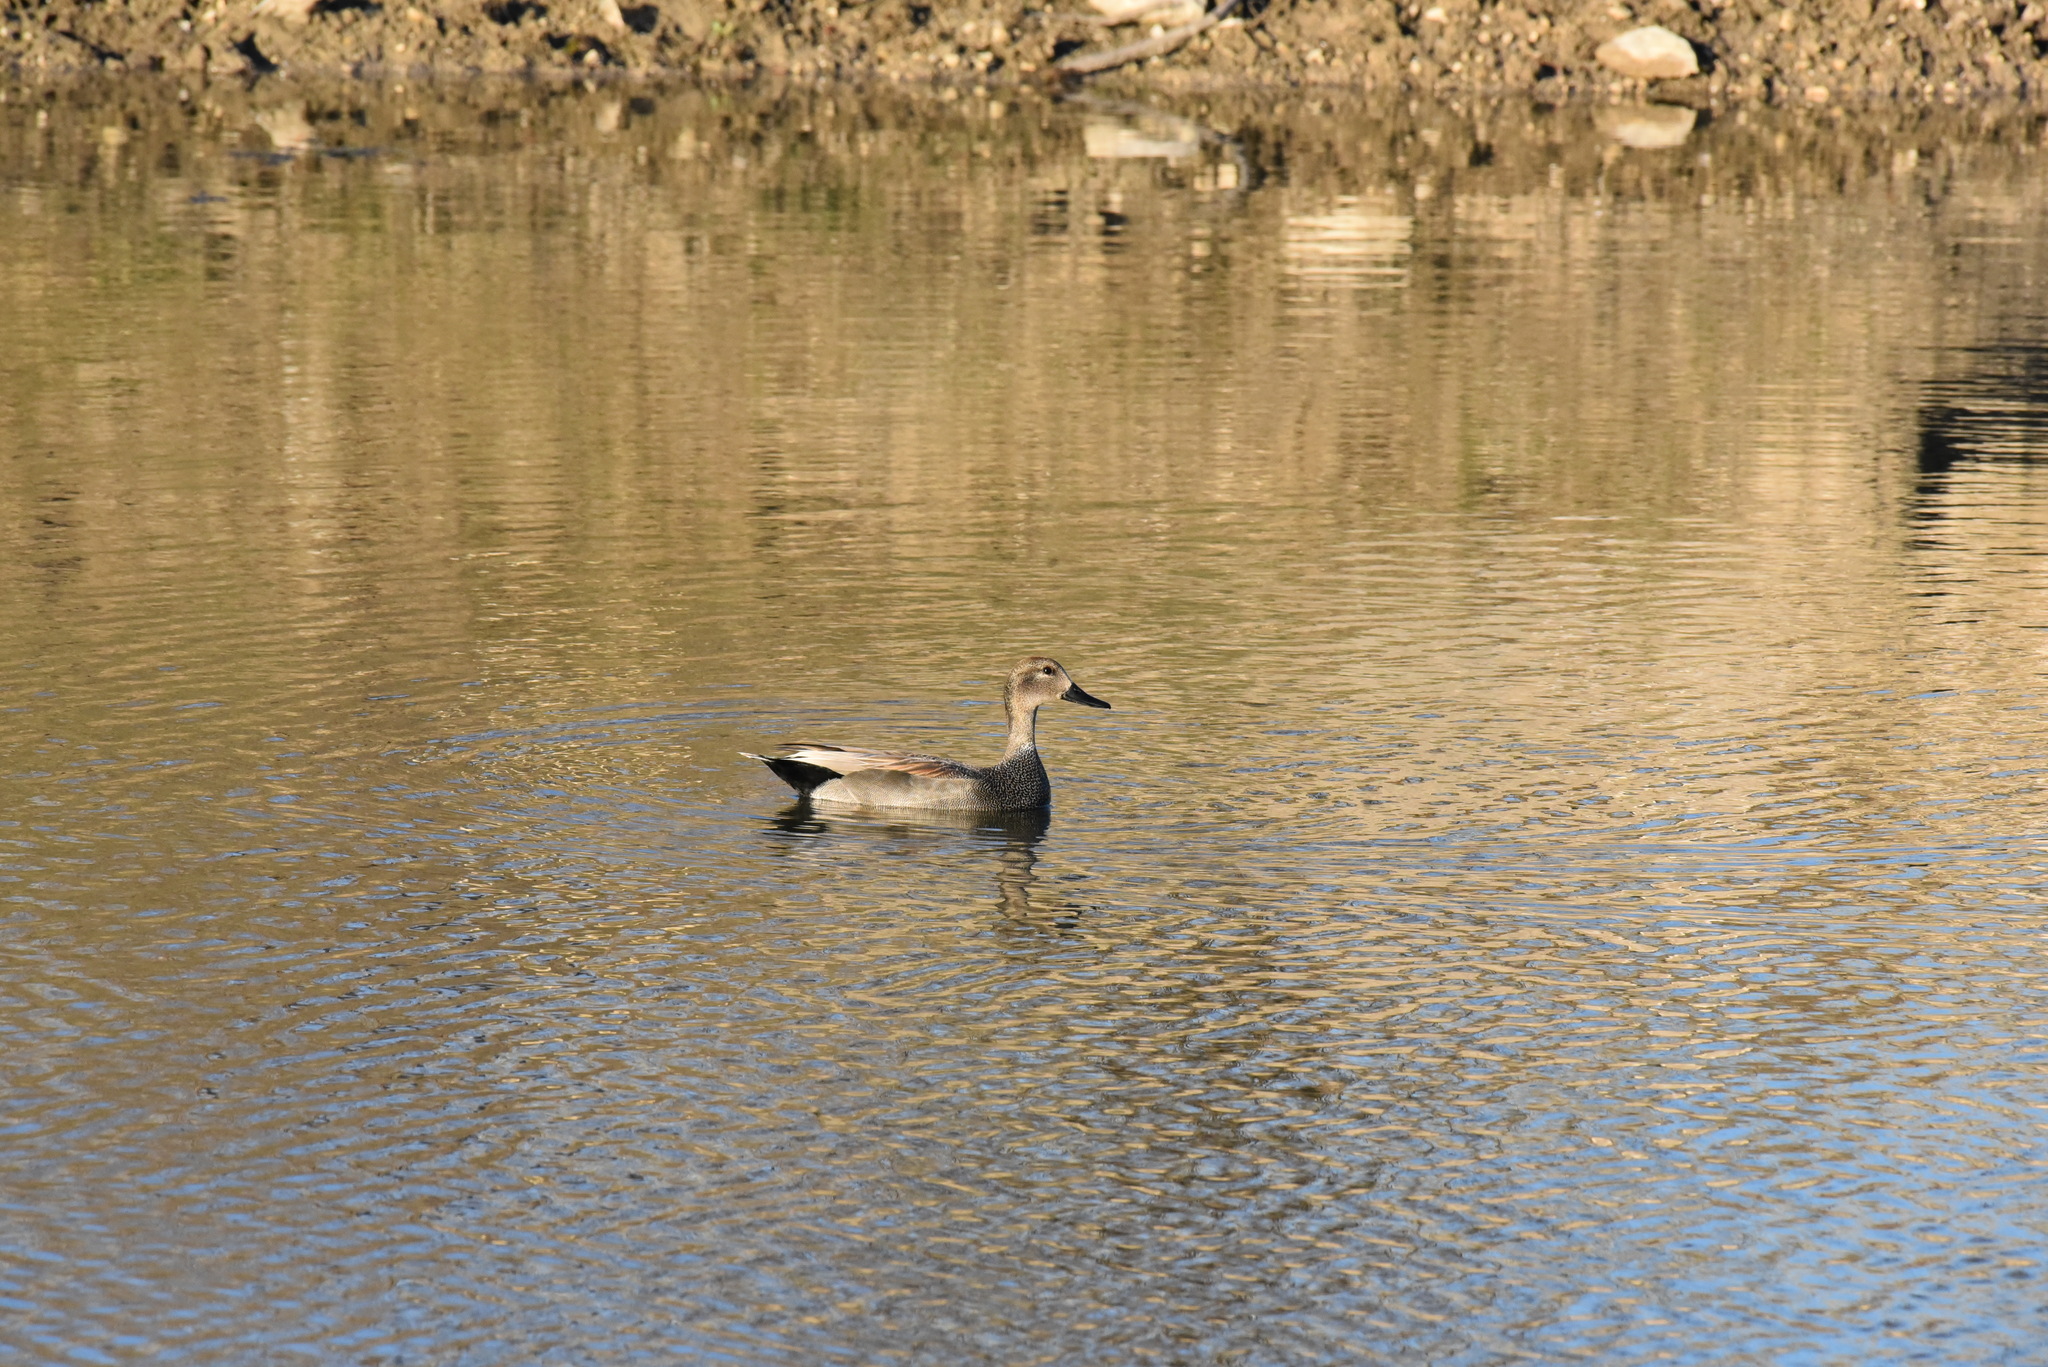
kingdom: Animalia
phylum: Chordata
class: Aves
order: Anseriformes
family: Anatidae
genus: Mareca
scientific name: Mareca strepera
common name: Gadwall
